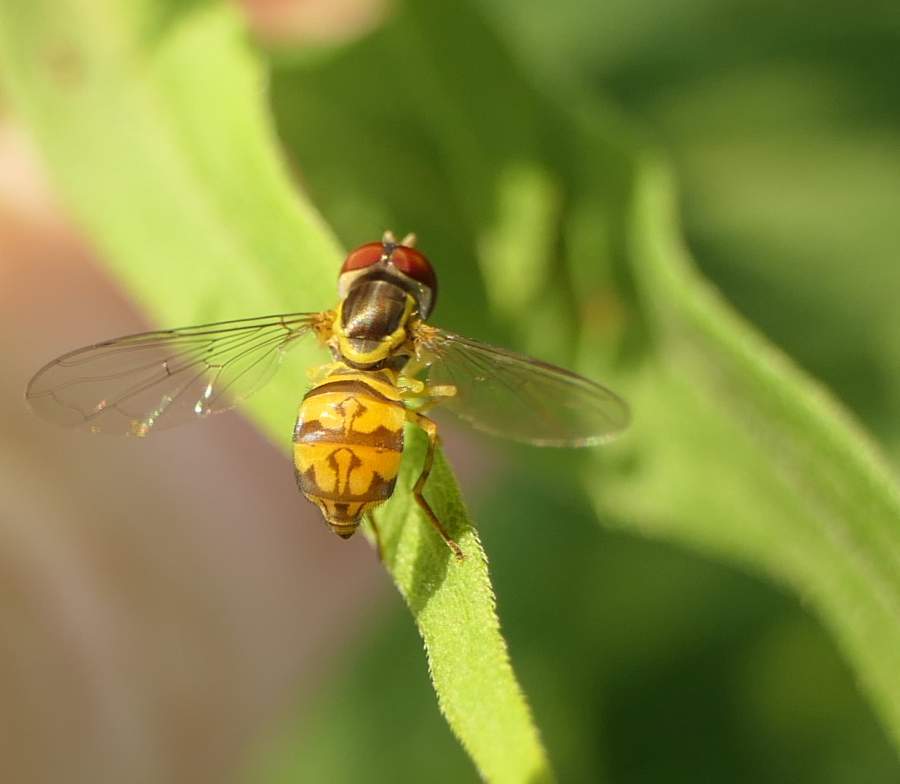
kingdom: Animalia
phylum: Arthropoda
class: Insecta
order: Diptera
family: Syrphidae
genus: Toxomerus
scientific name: Toxomerus geminatus
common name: Eastern calligrapher
